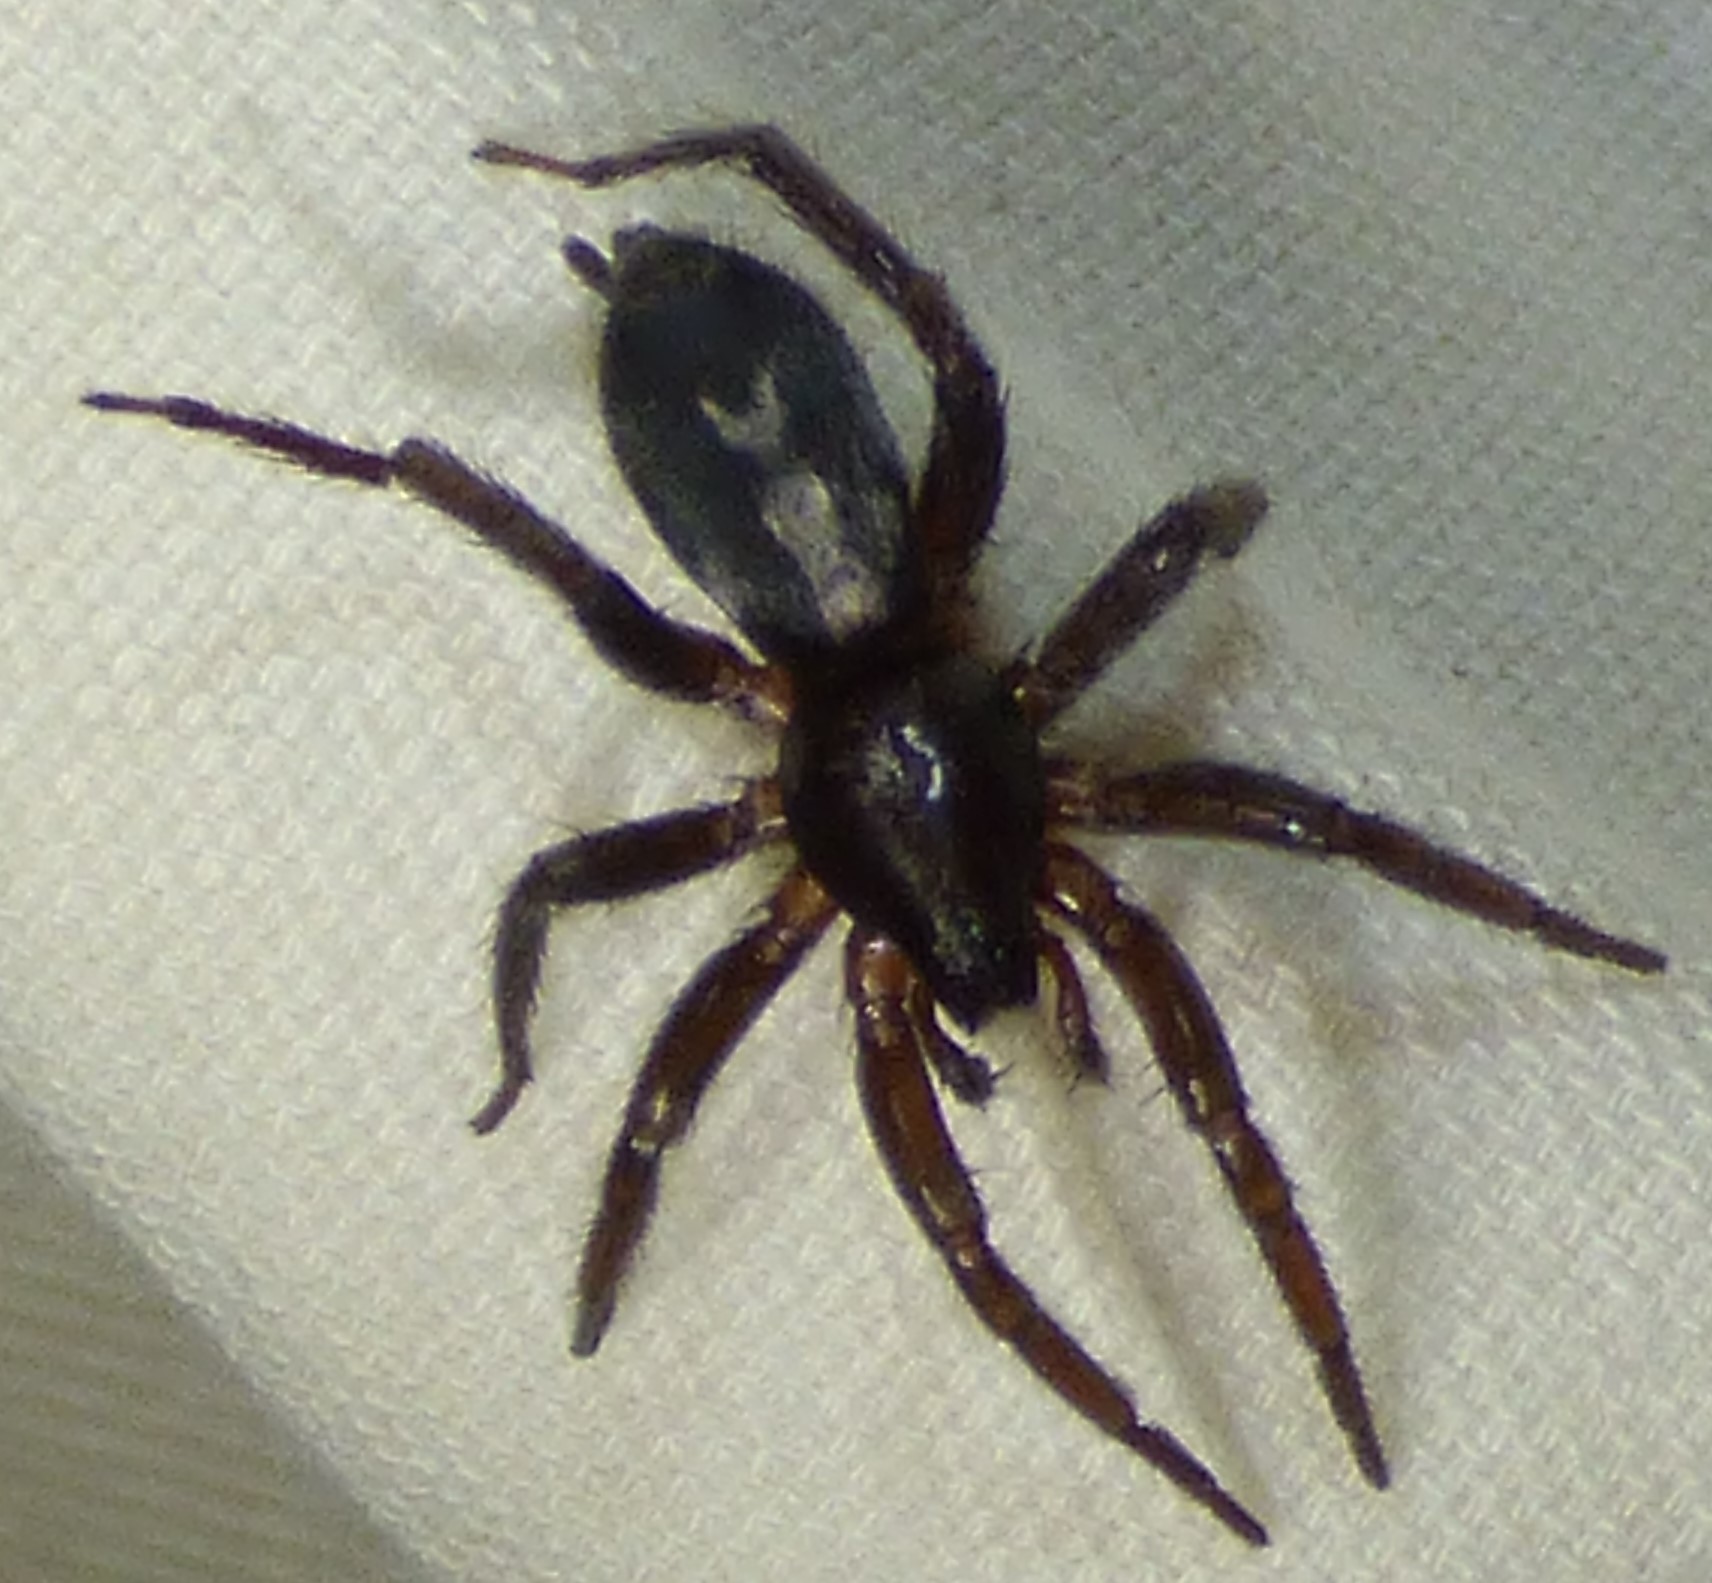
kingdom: Animalia
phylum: Arthropoda
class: Arachnida
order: Araneae
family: Gnaphosidae
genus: Herpyllus
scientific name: Herpyllus ecclesiasticus
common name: Eastern parson spider
